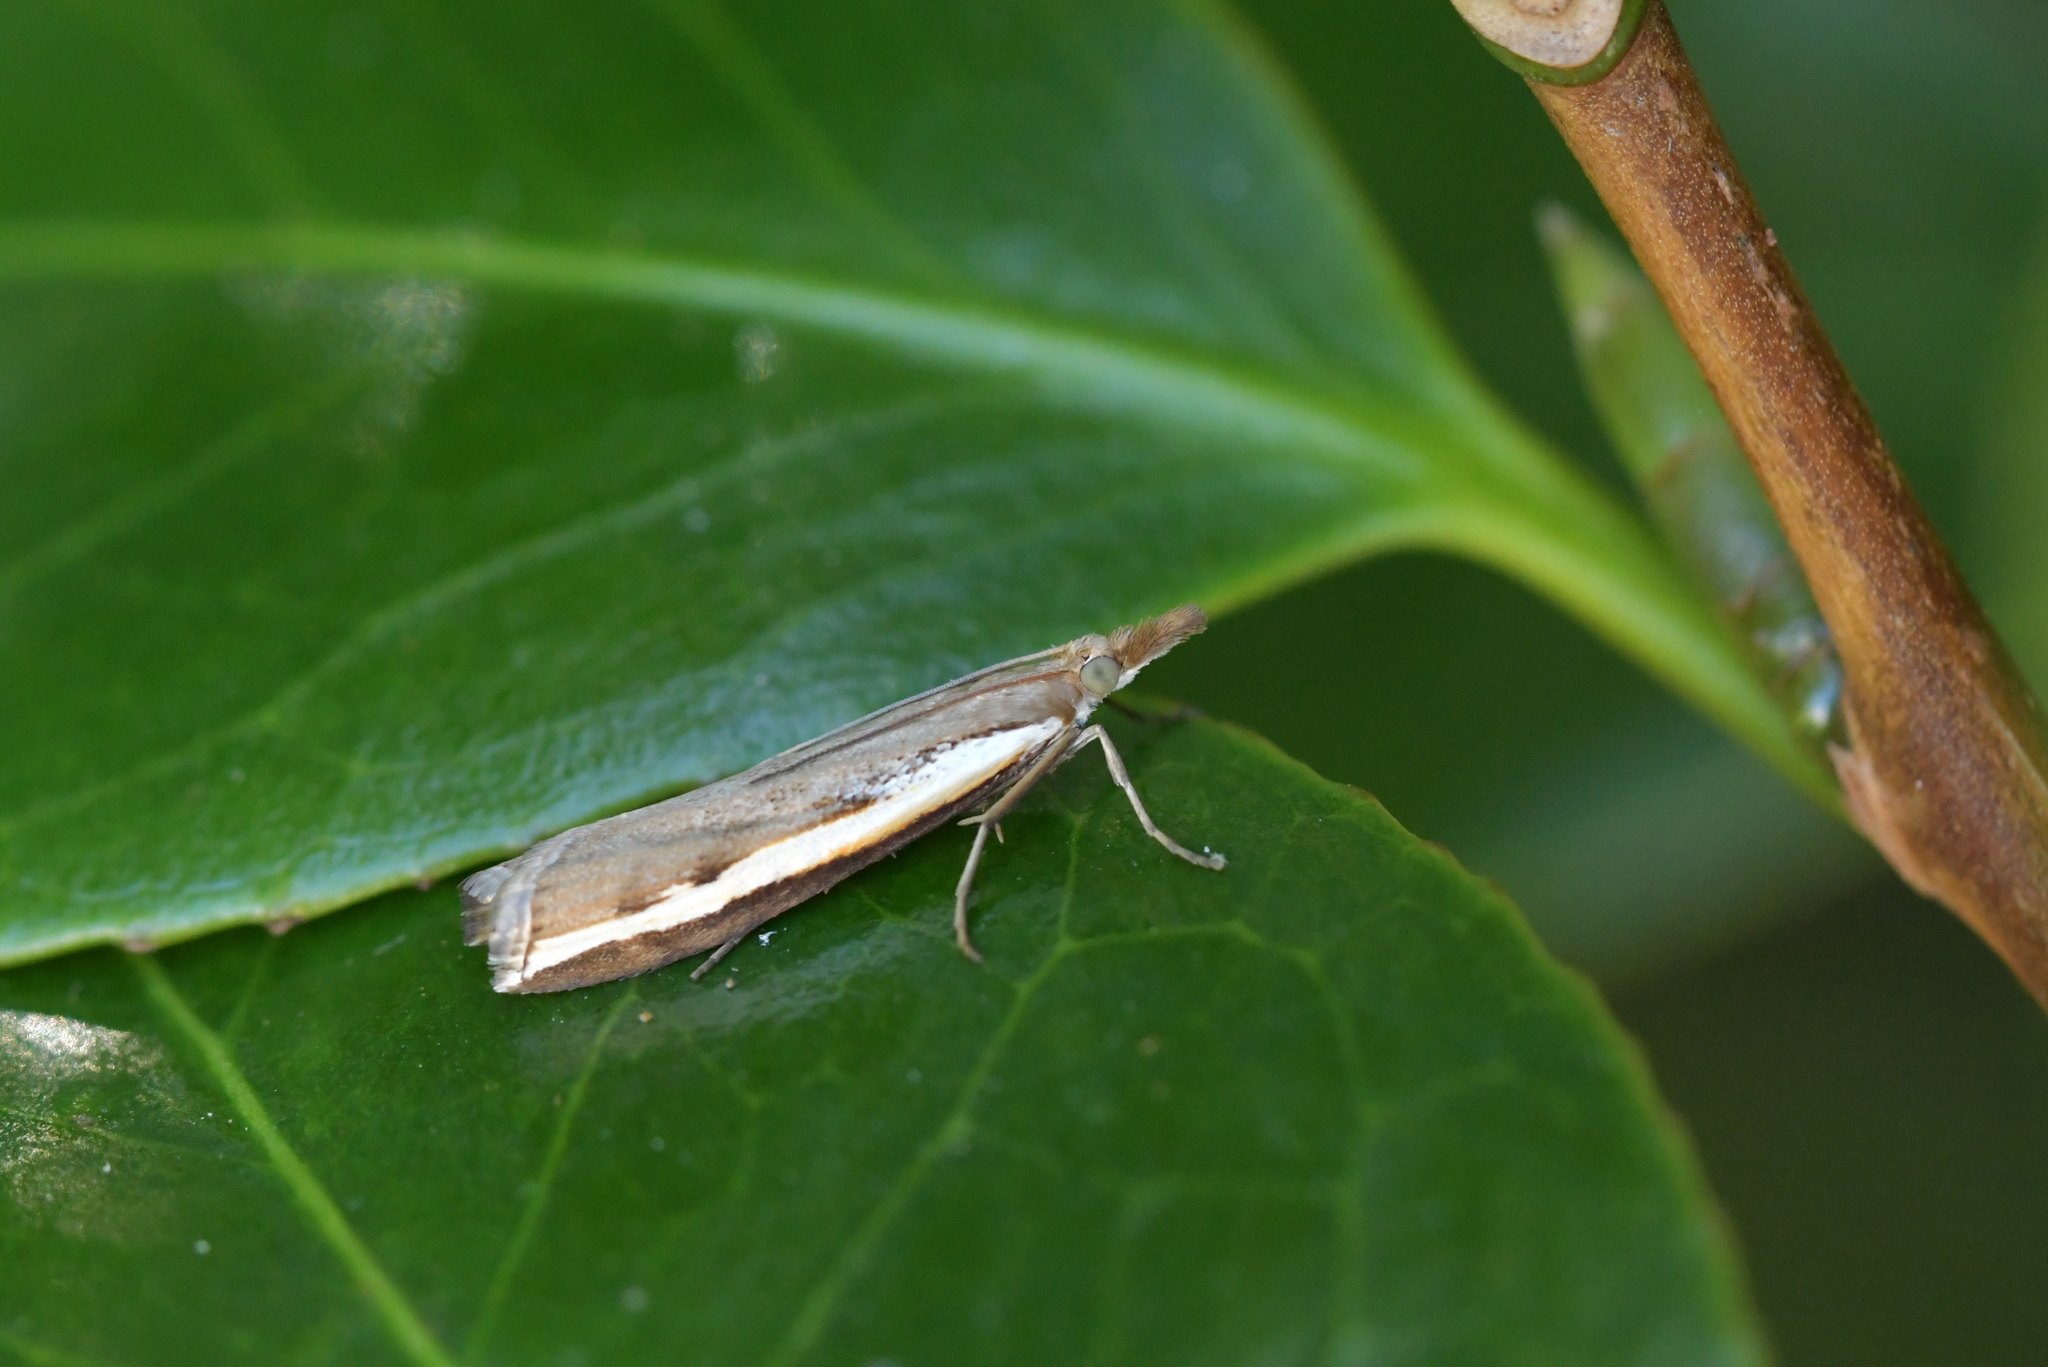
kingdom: Animalia
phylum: Arthropoda
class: Insecta
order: Lepidoptera
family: Crambidae
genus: Orocrambus
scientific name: Orocrambus flexuosellus
